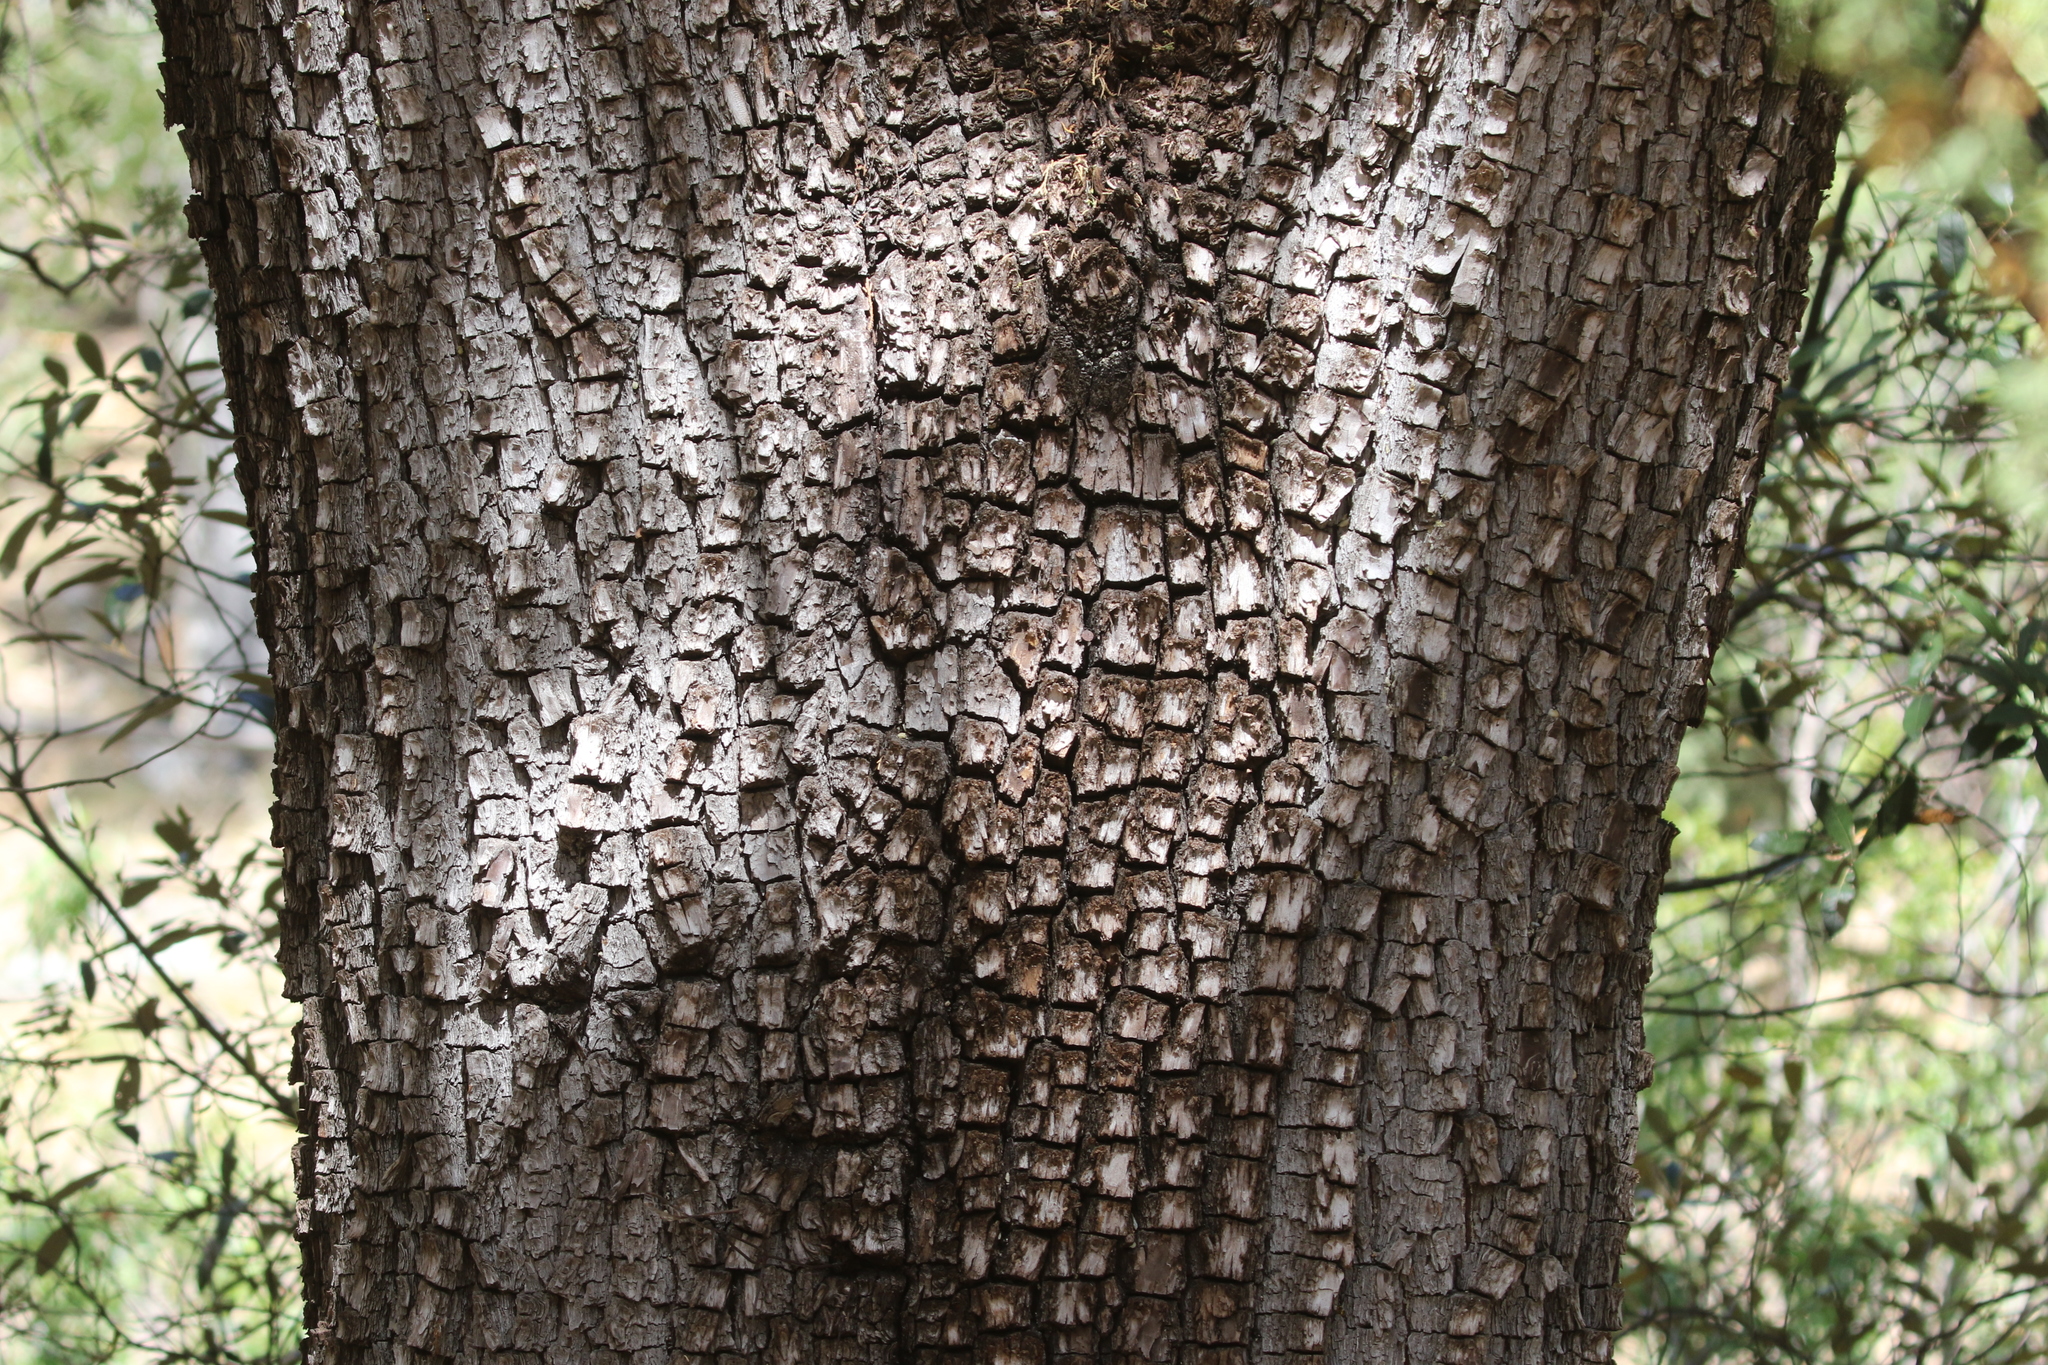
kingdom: Plantae
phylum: Tracheophyta
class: Pinopsida
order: Pinales
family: Cupressaceae
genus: Juniperus
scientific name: Juniperus deppeana
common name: Alligator juniper
